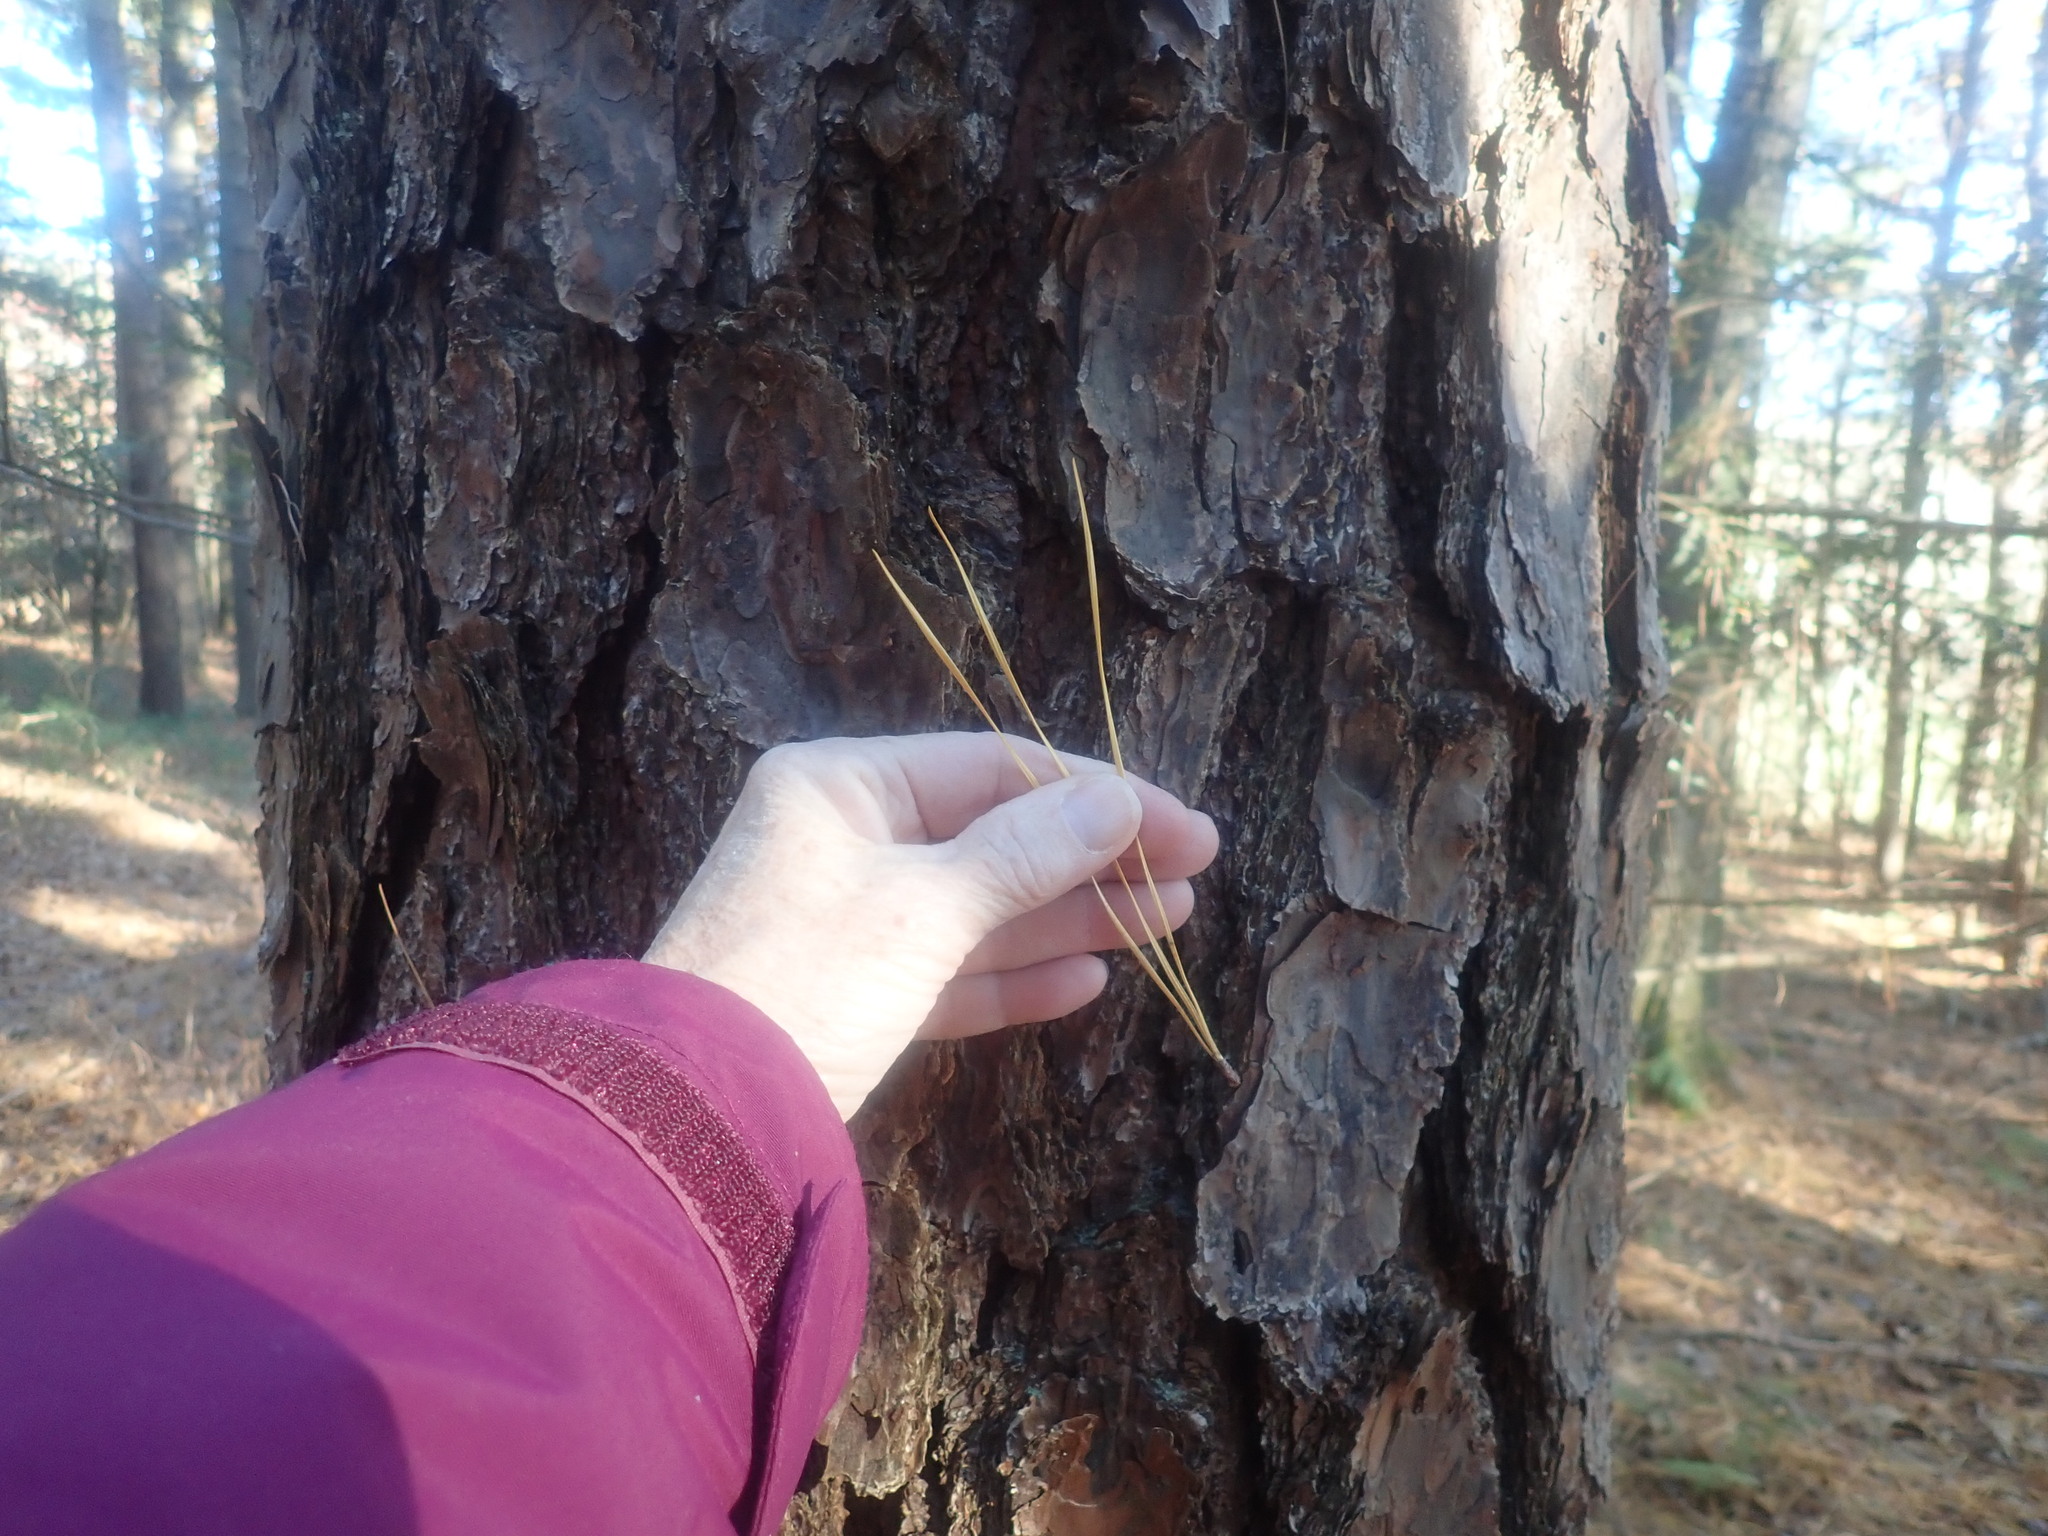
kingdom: Plantae
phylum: Tracheophyta
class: Pinopsida
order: Pinales
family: Pinaceae
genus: Pinus
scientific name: Pinus rigida
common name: Pitch pine
